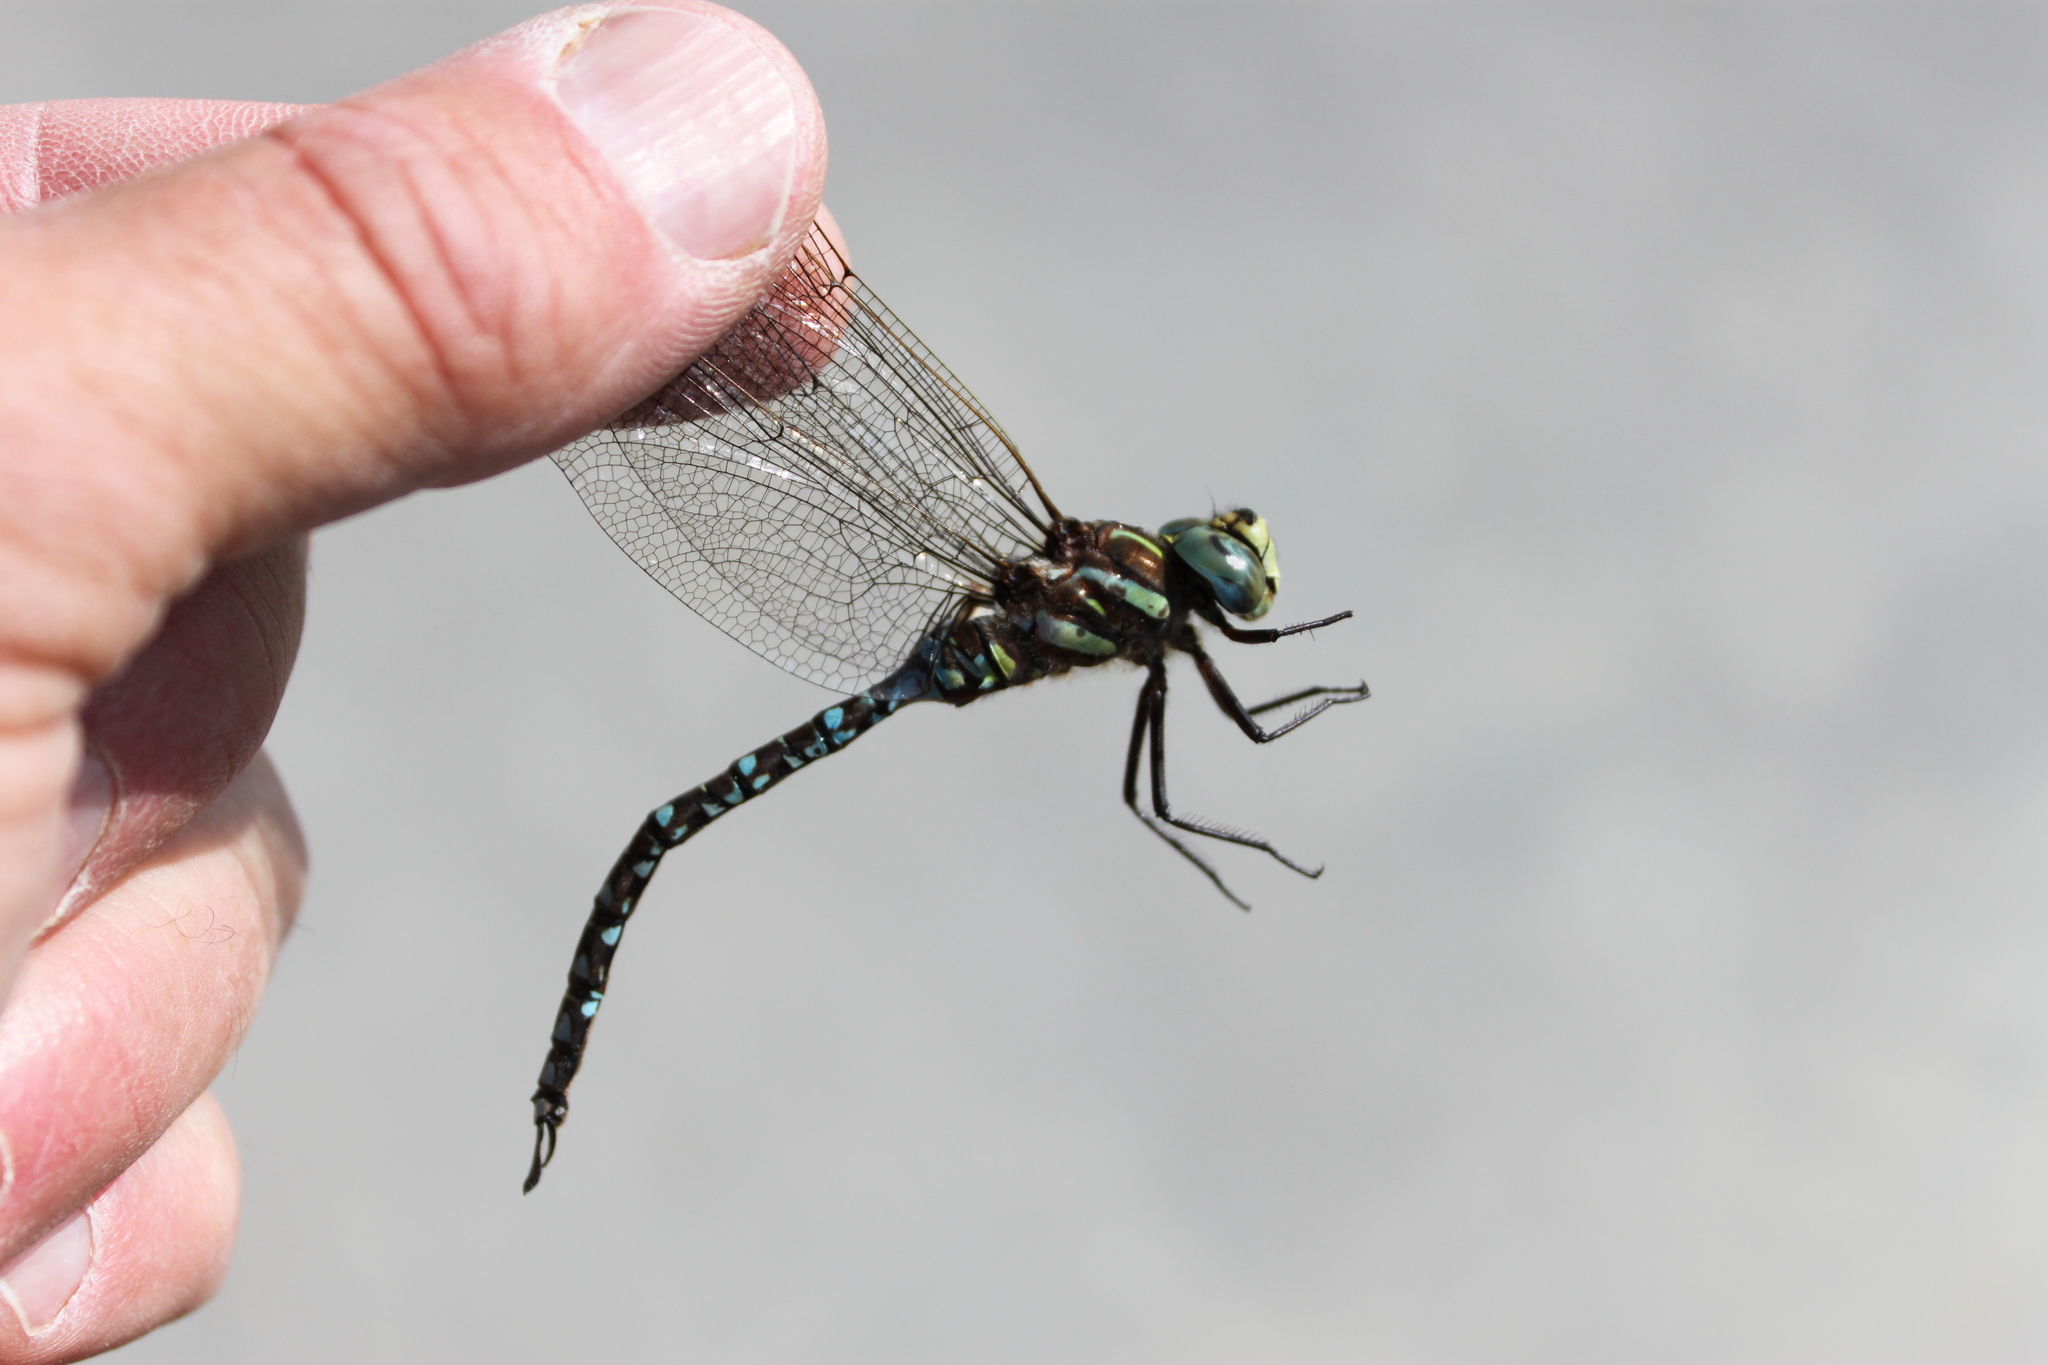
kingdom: Animalia
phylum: Arthropoda
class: Insecta
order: Odonata
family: Aeshnidae
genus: Aeshna
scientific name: Aeshna juncea
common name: Moorland hawker
